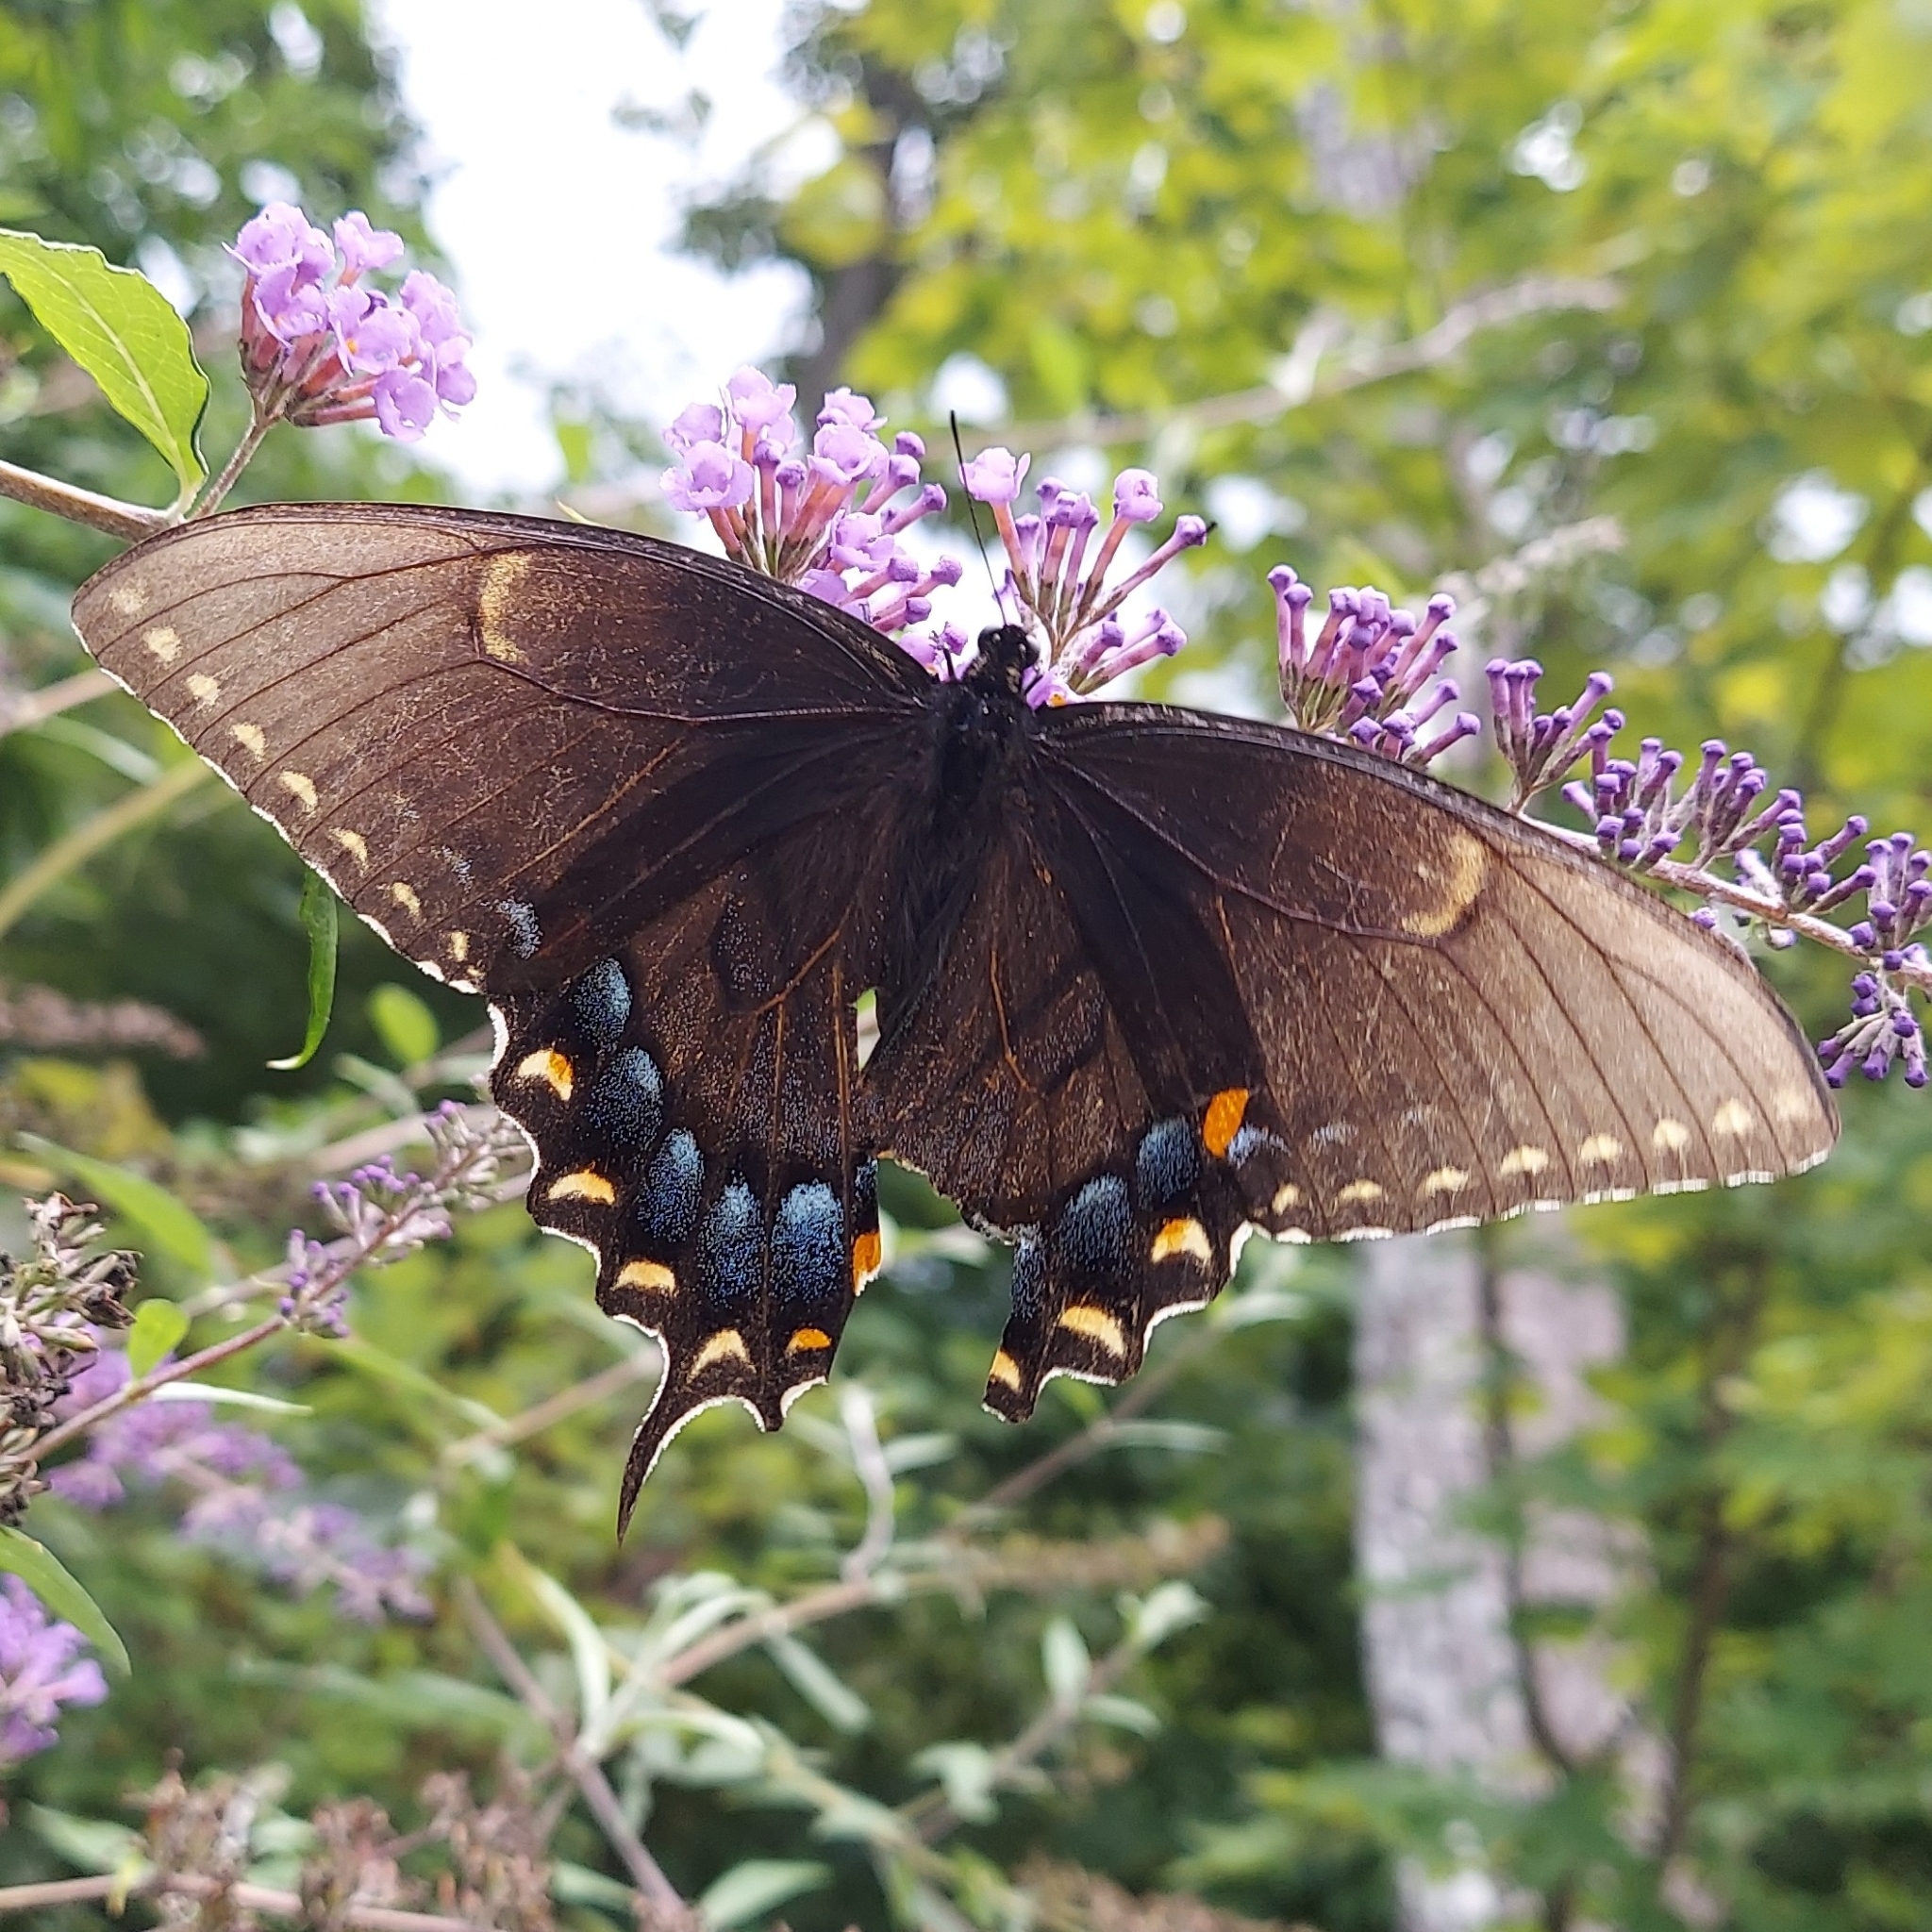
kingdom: Animalia
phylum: Arthropoda
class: Insecta
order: Lepidoptera
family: Papilionidae
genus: Papilio
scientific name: Papilio glaucus
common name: Tiger swallowtail
